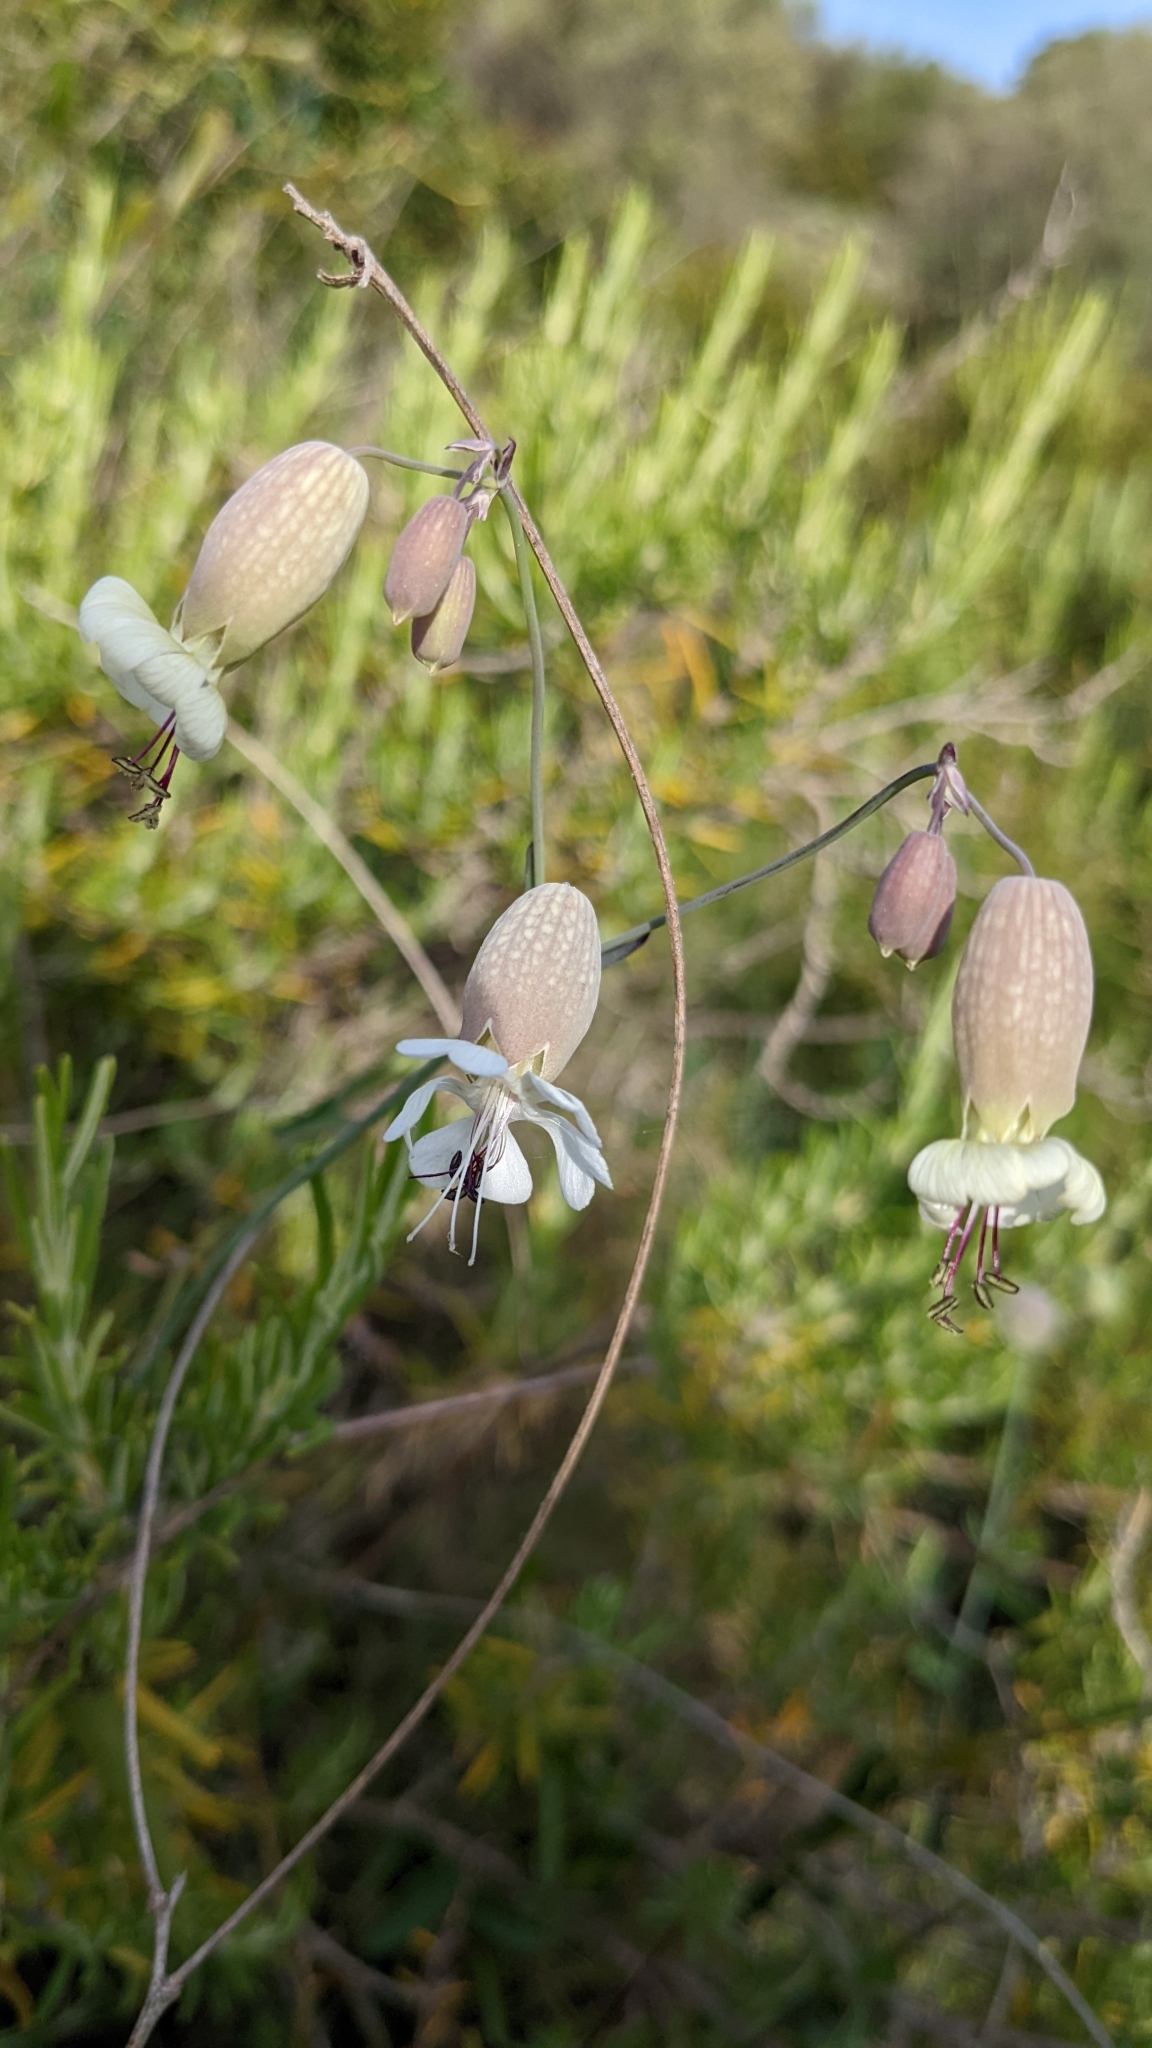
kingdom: Plantae
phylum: Tracheophyta
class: Magnoliopsida
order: Caryophyllales
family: Caryophyllaceae
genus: Silene
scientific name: Silene vulgaris
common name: Bladder campion
